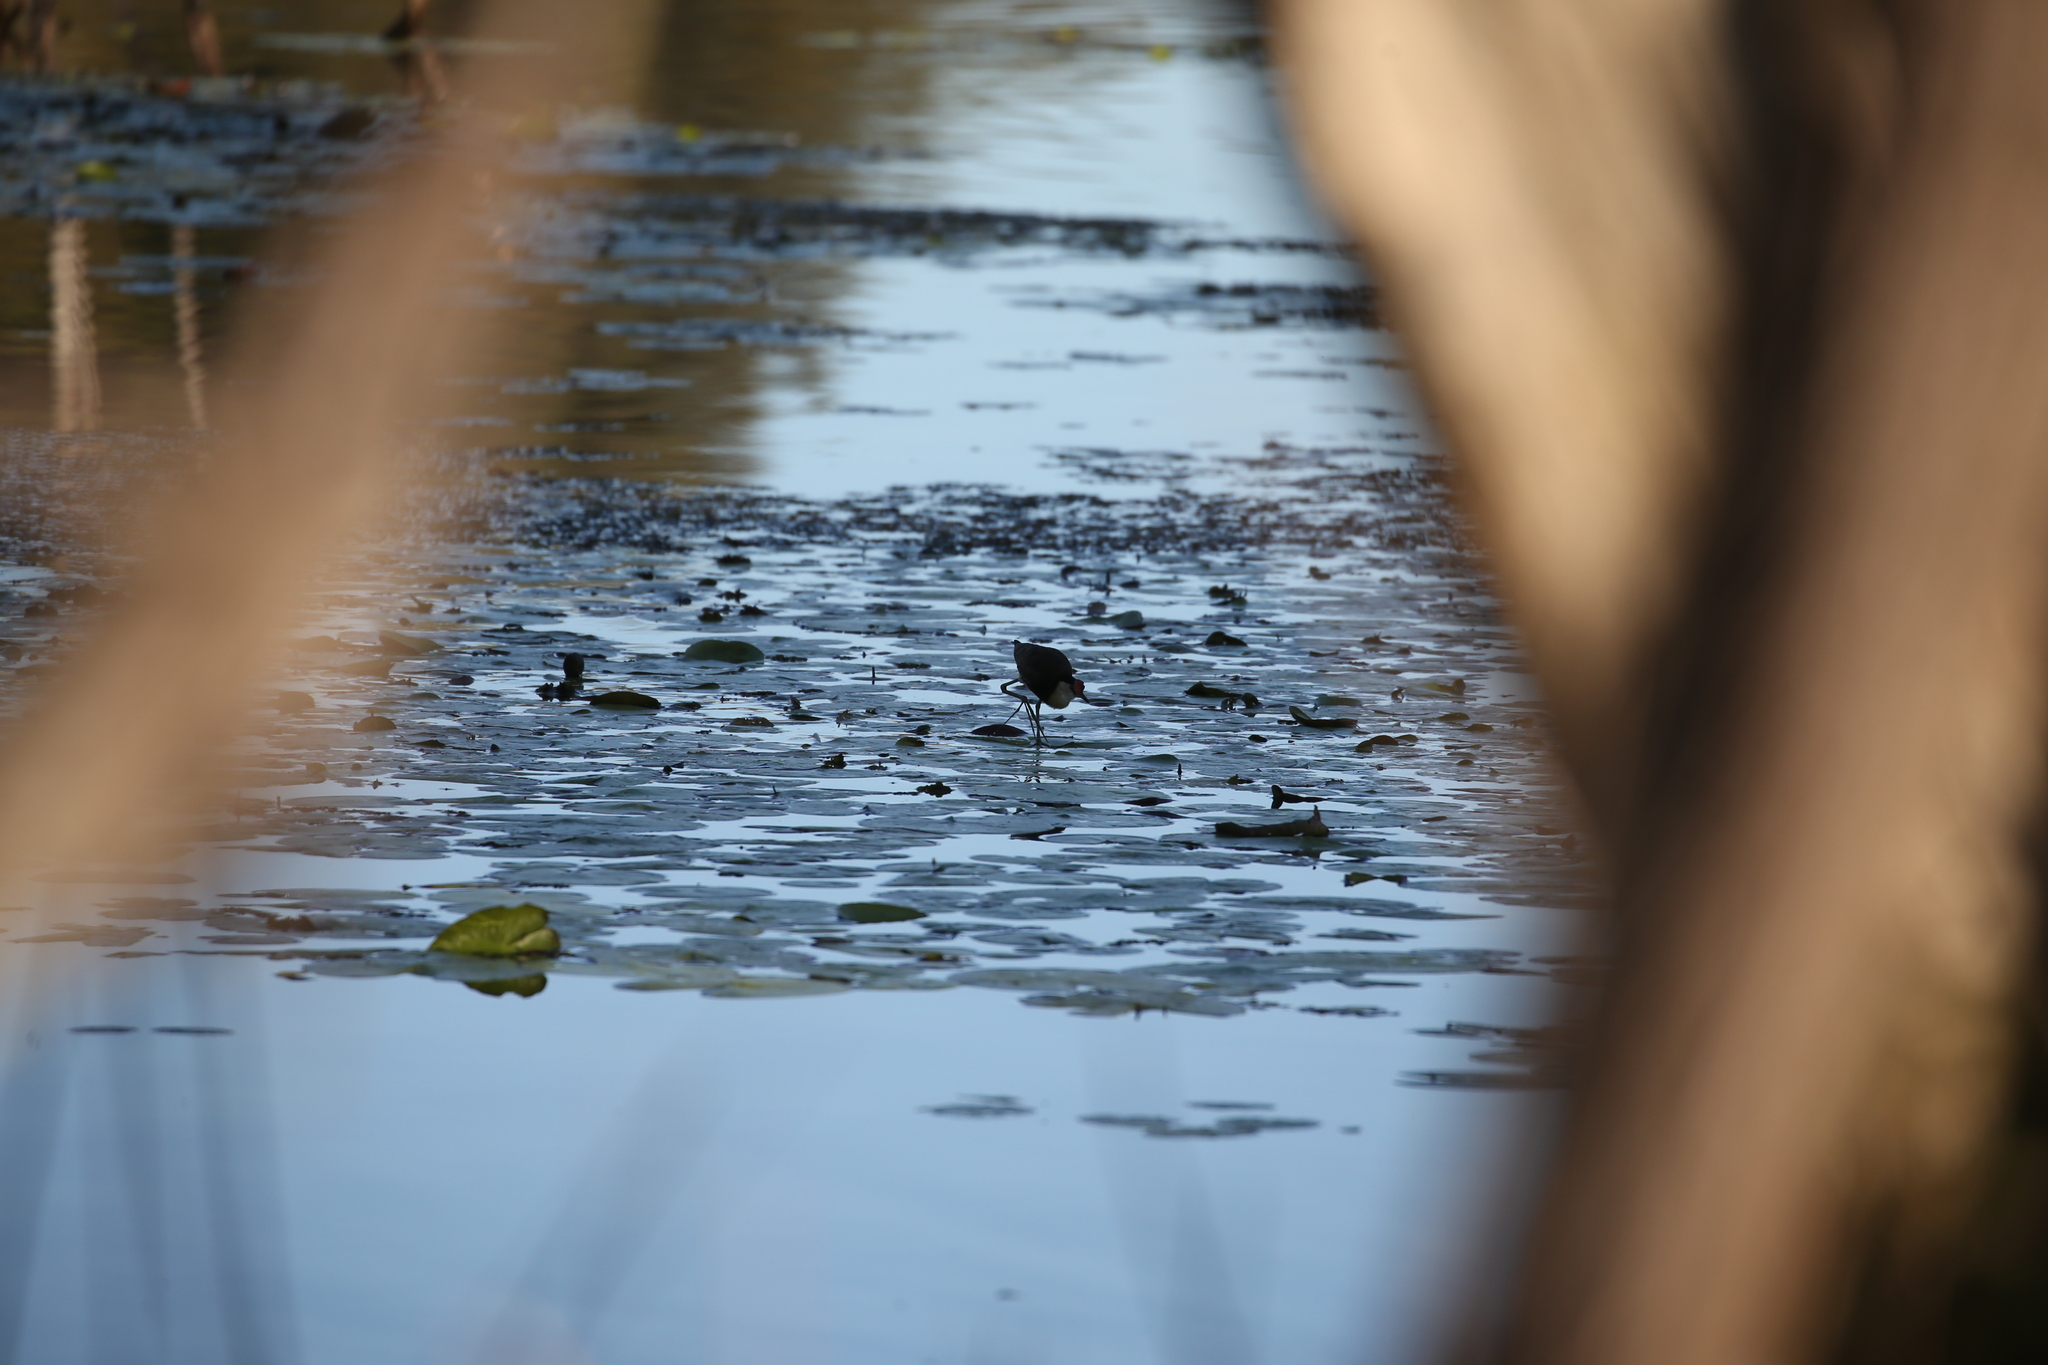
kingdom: Animalia
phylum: Chordata
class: Aves
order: Charadriiformes
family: Jacanidae
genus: Irediparra
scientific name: Irediparra gallinacea
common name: Comb-crested jacana
